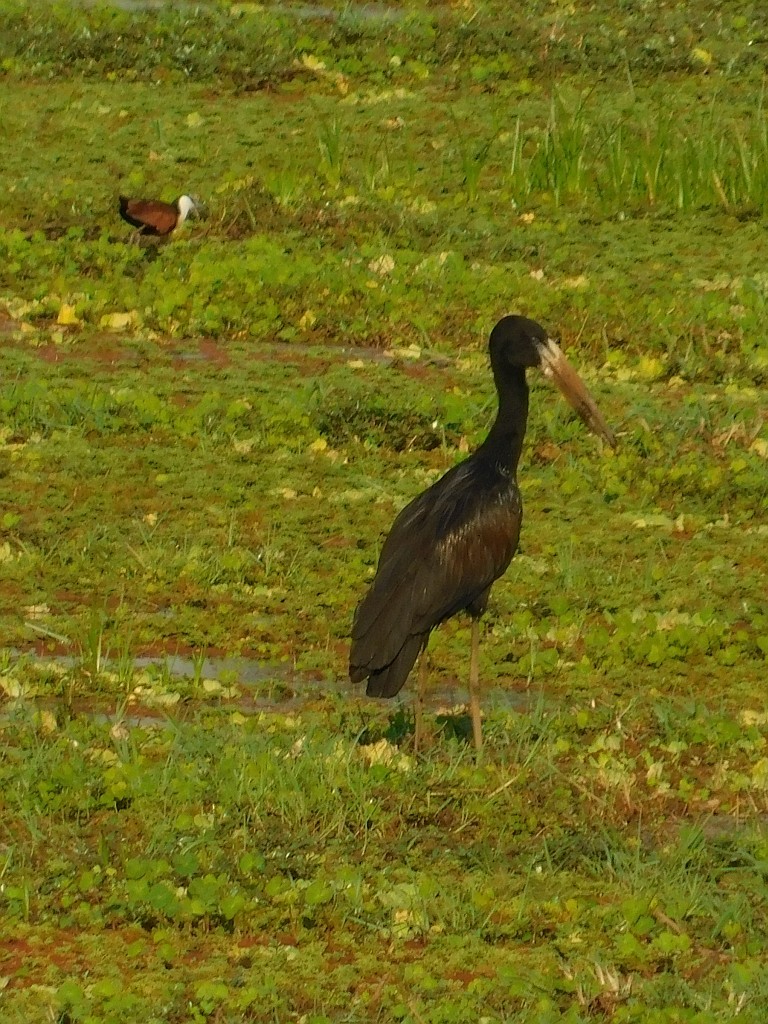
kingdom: Animalia
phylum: Chordata
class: Aves
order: Ciconiiformes
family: Ciconiidae
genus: Anastomus
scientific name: Anastomus lamelligerus
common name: African openbill
